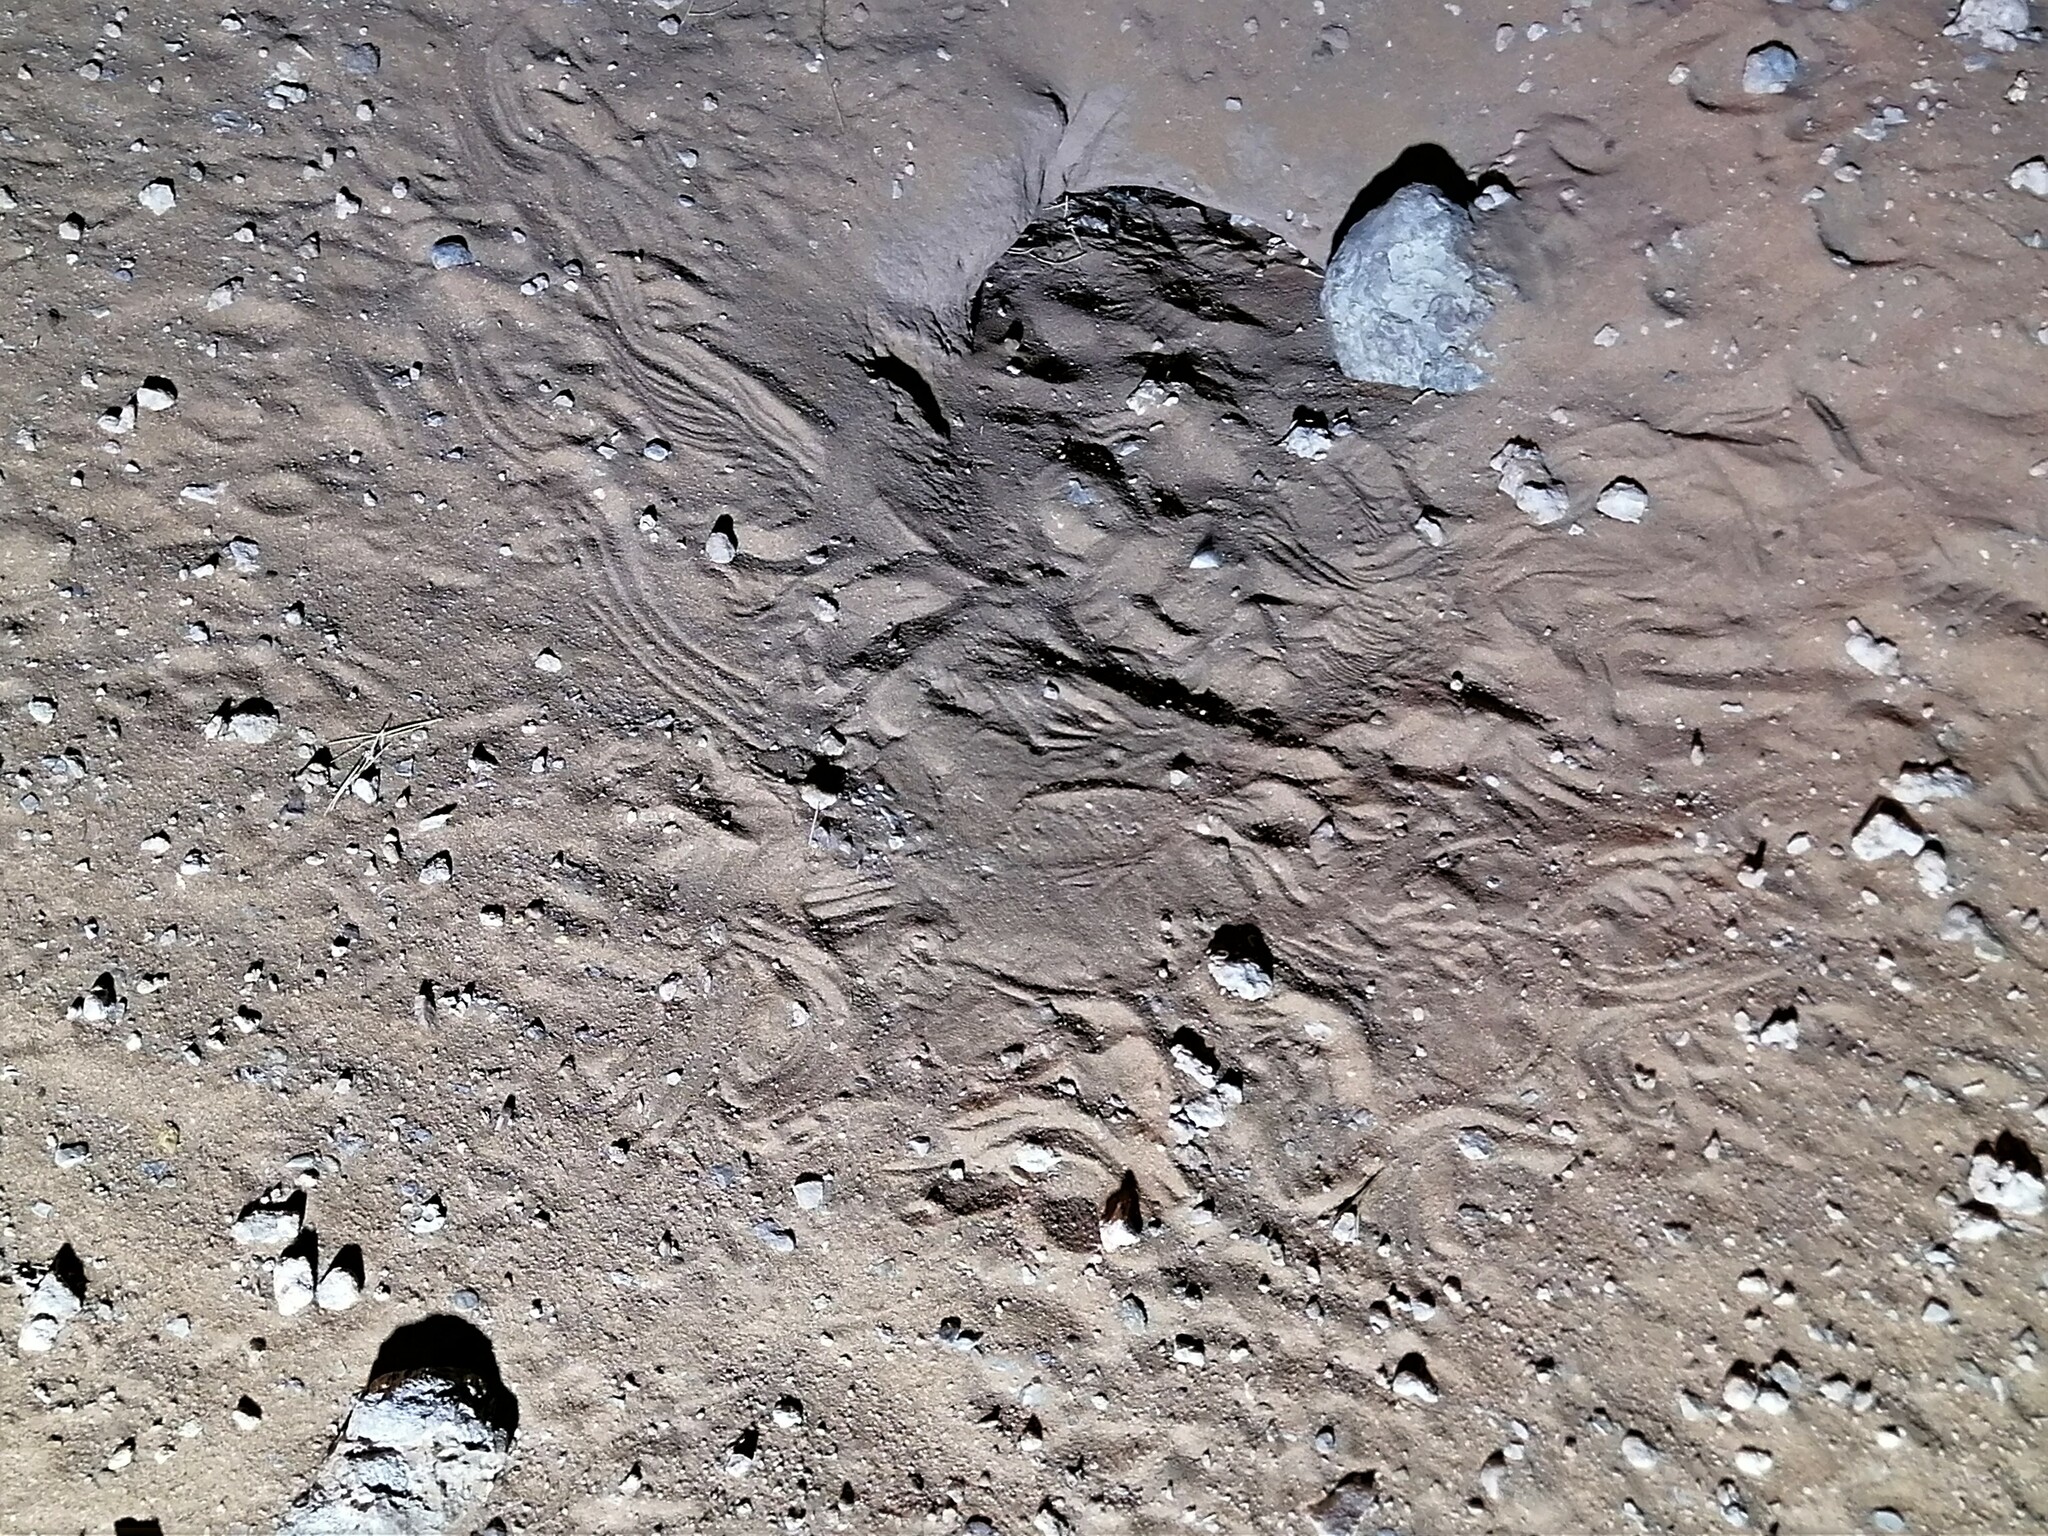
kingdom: Animalia
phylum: Chordata
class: Squamata
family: Agamidae
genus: Uromastyx
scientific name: Uromastyx aegyptia
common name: Egyptian mastigure
